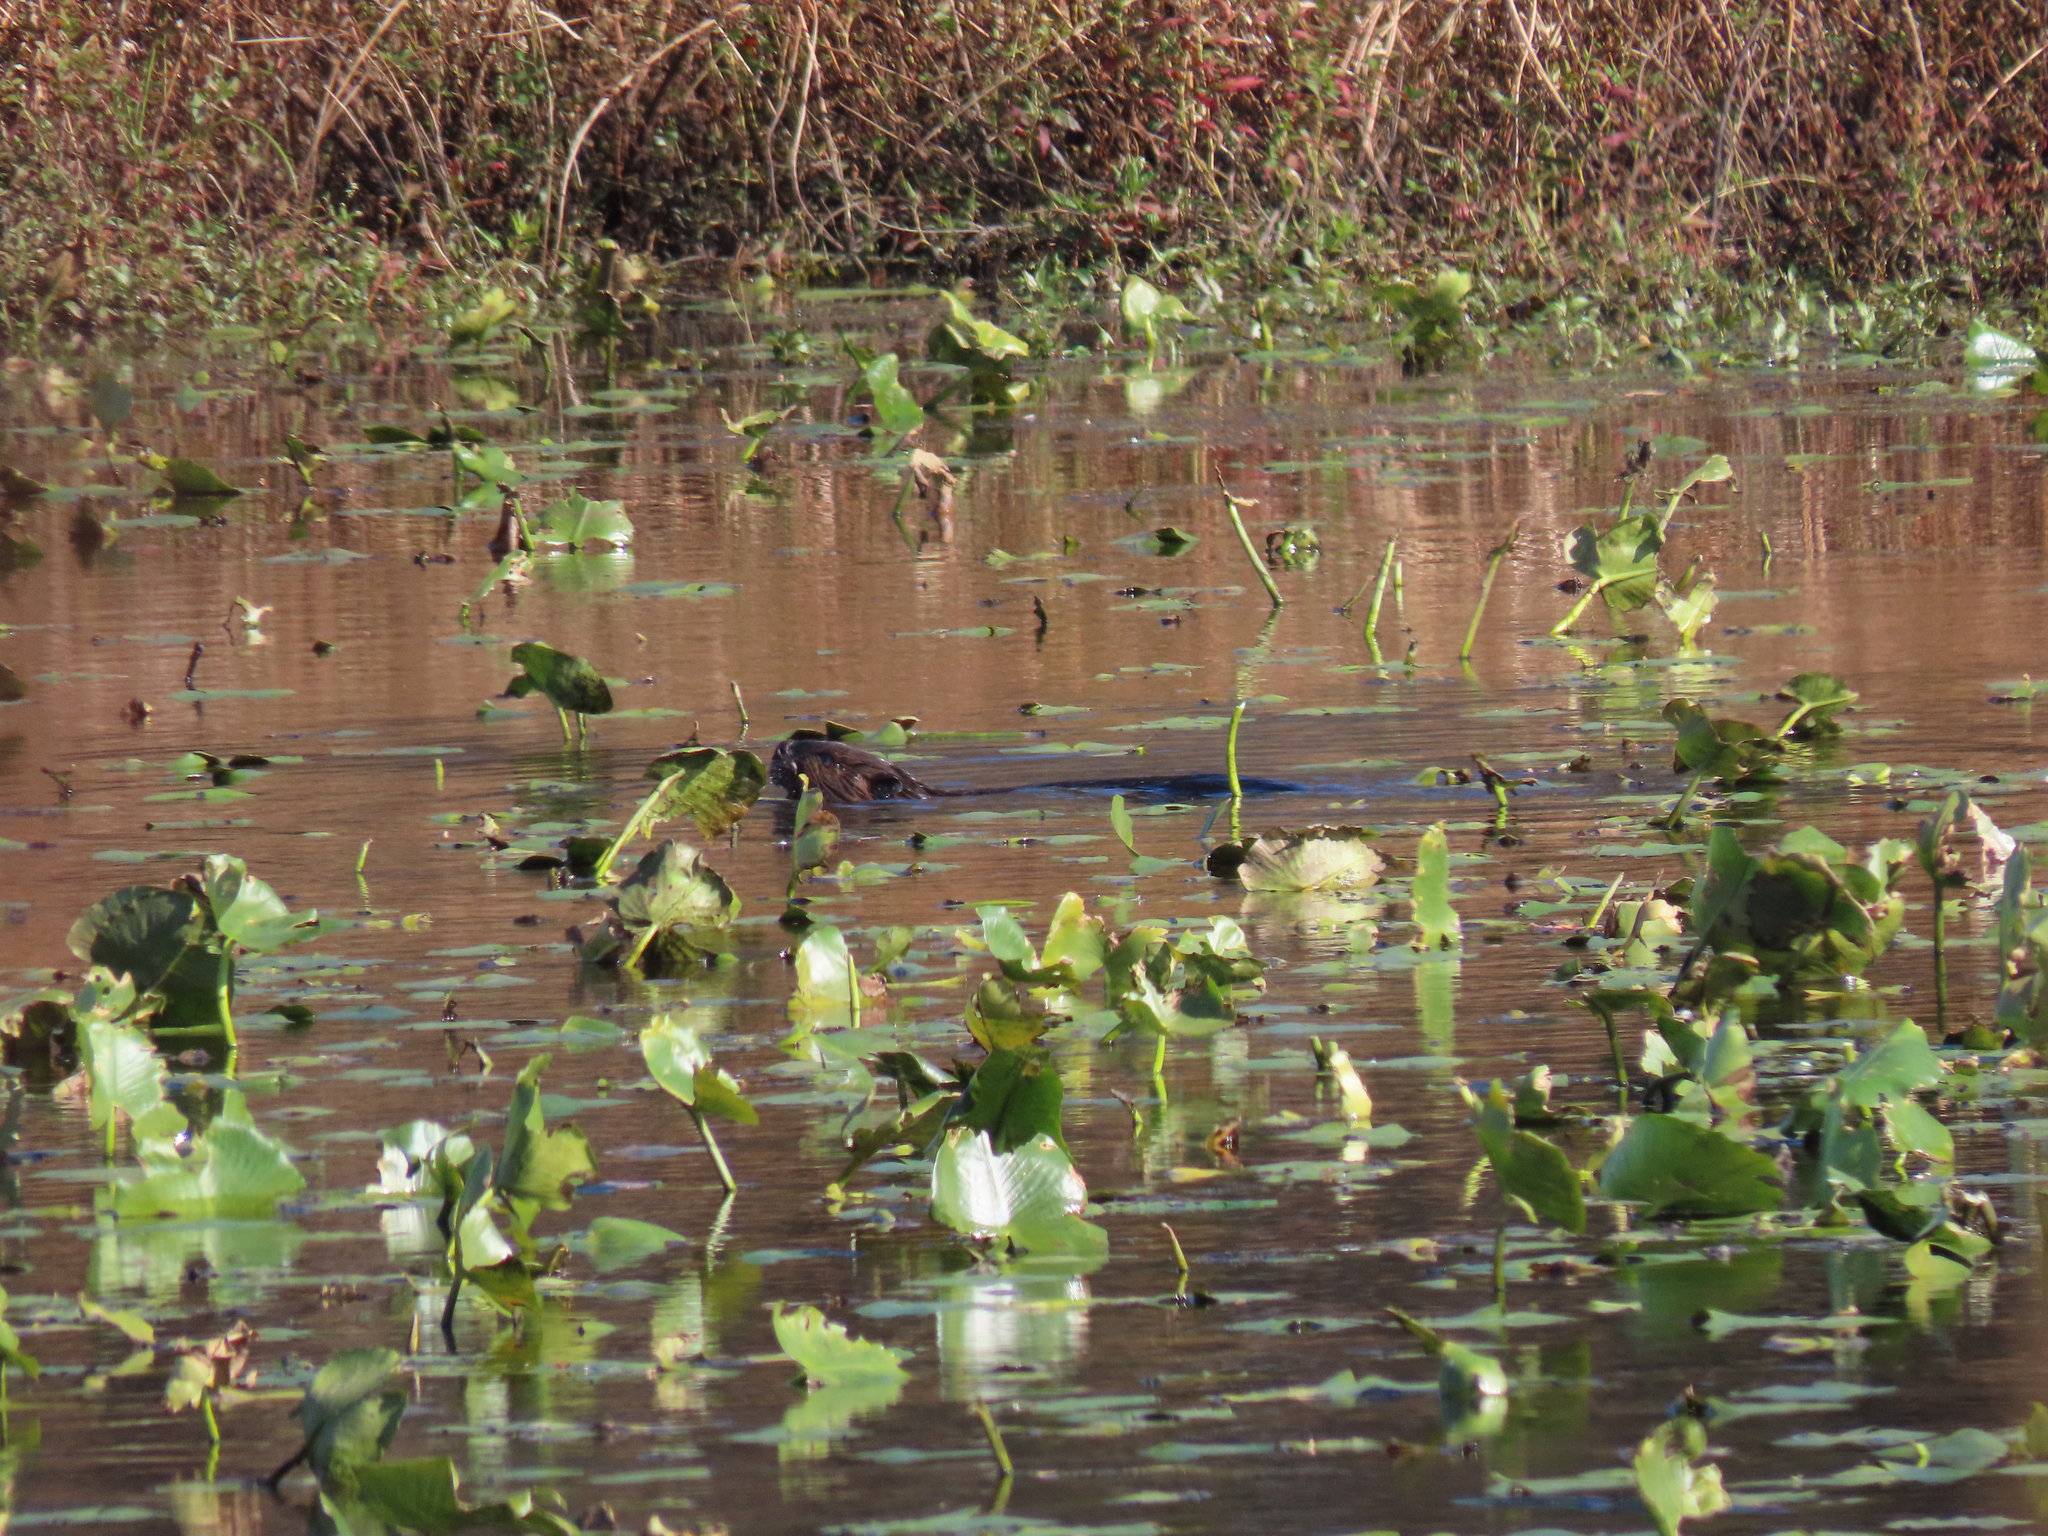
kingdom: Animalia
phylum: Chordata
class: Mammalia
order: Rodentia
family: Castoridae
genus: Castor
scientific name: Castor canadensis
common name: American beaver
